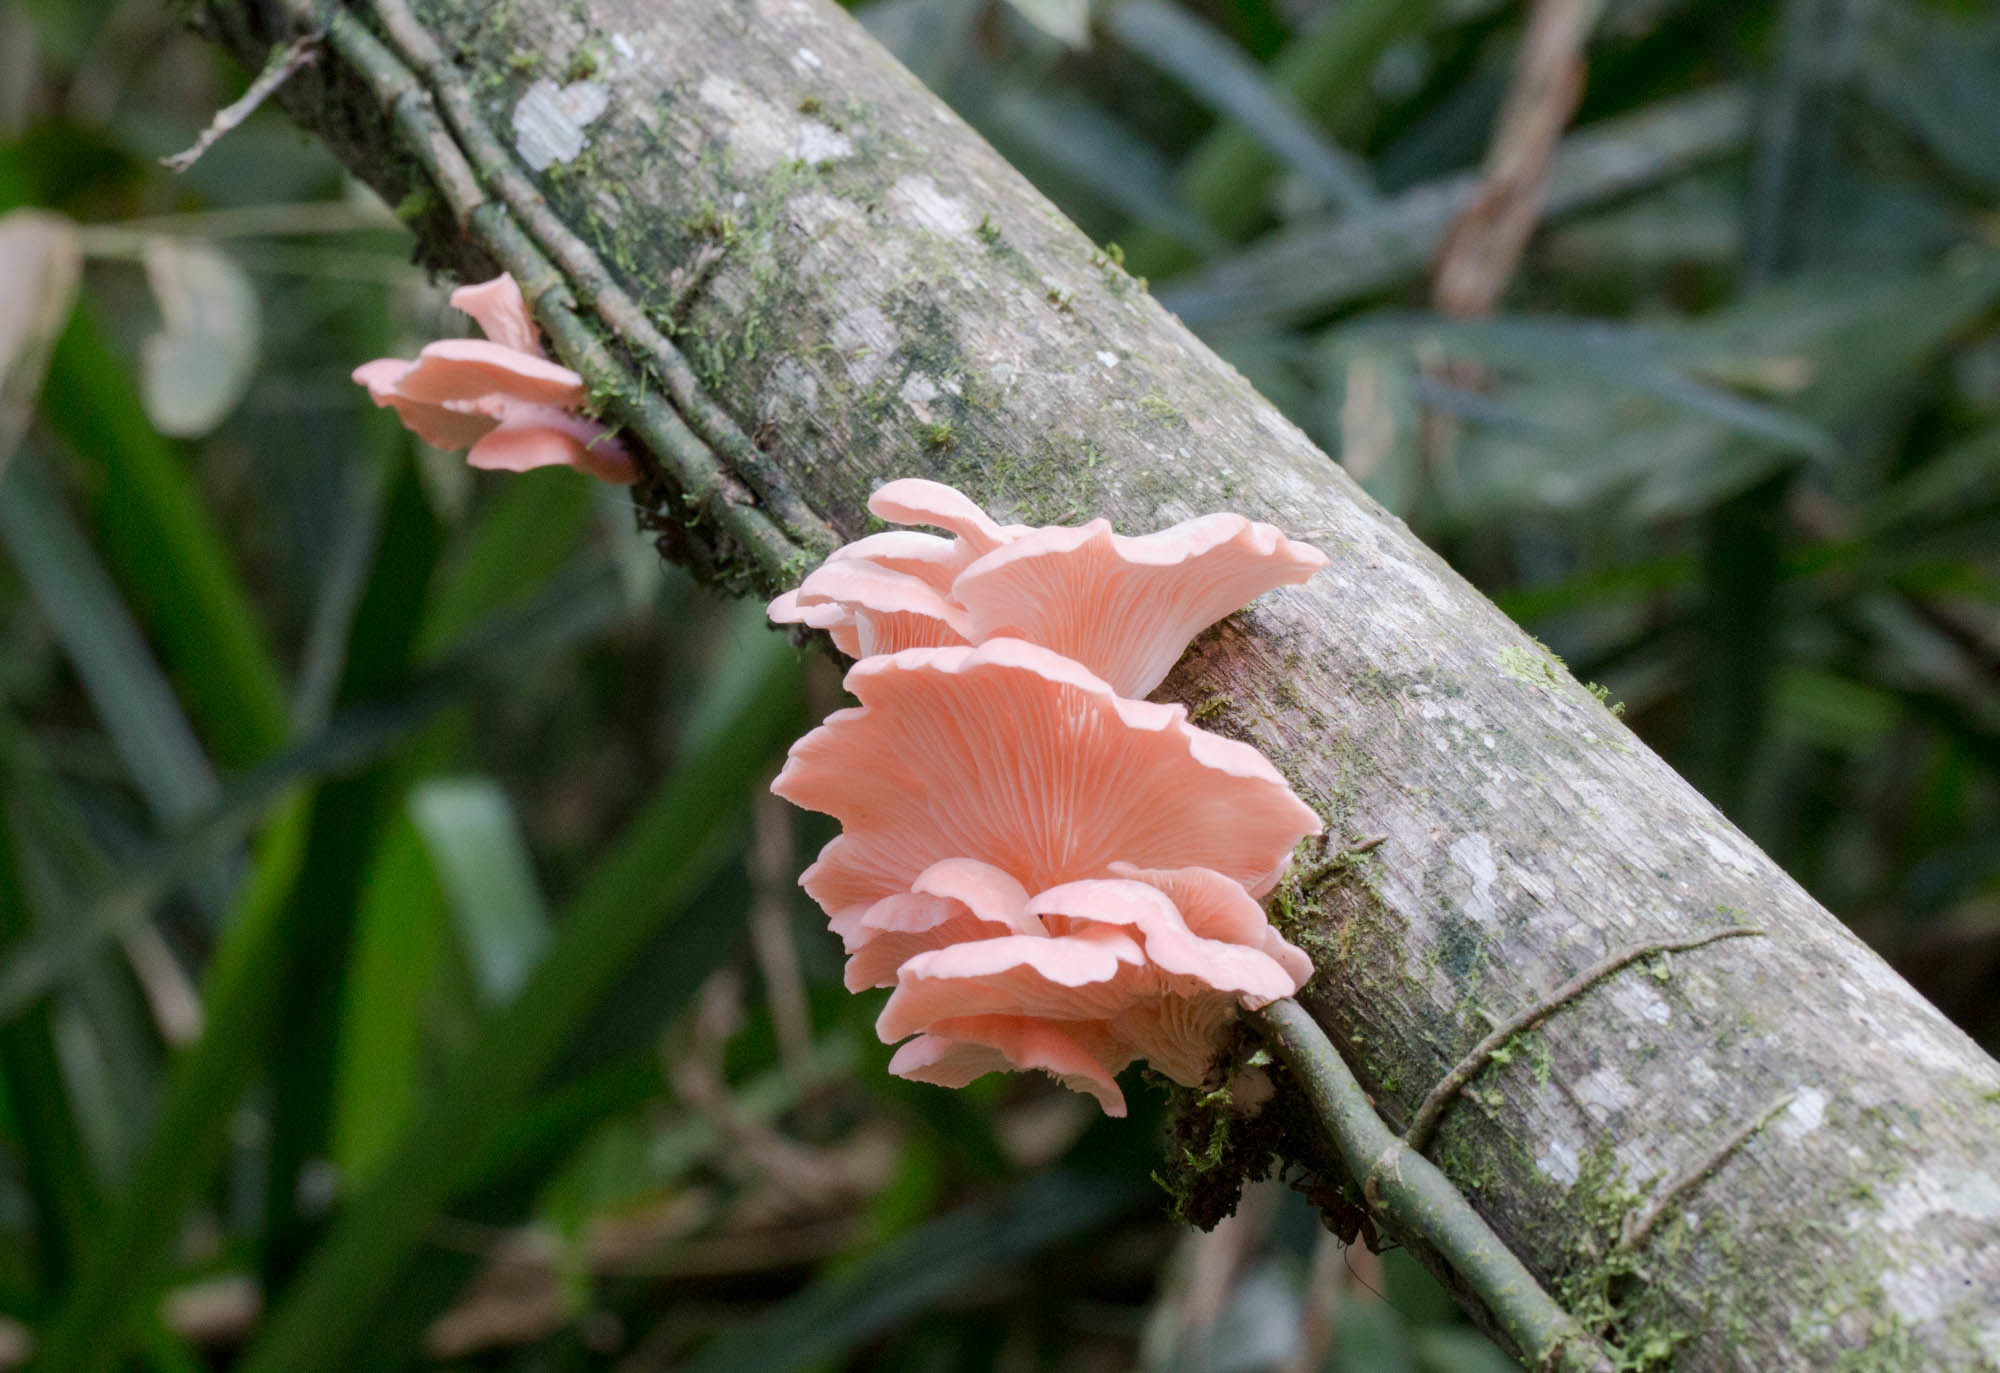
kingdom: Fungi
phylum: Basidiomycota
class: Agaricomycetes
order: Agaricales
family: Pleurotaceae
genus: Pleurotus
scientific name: Pleurotus djamor
